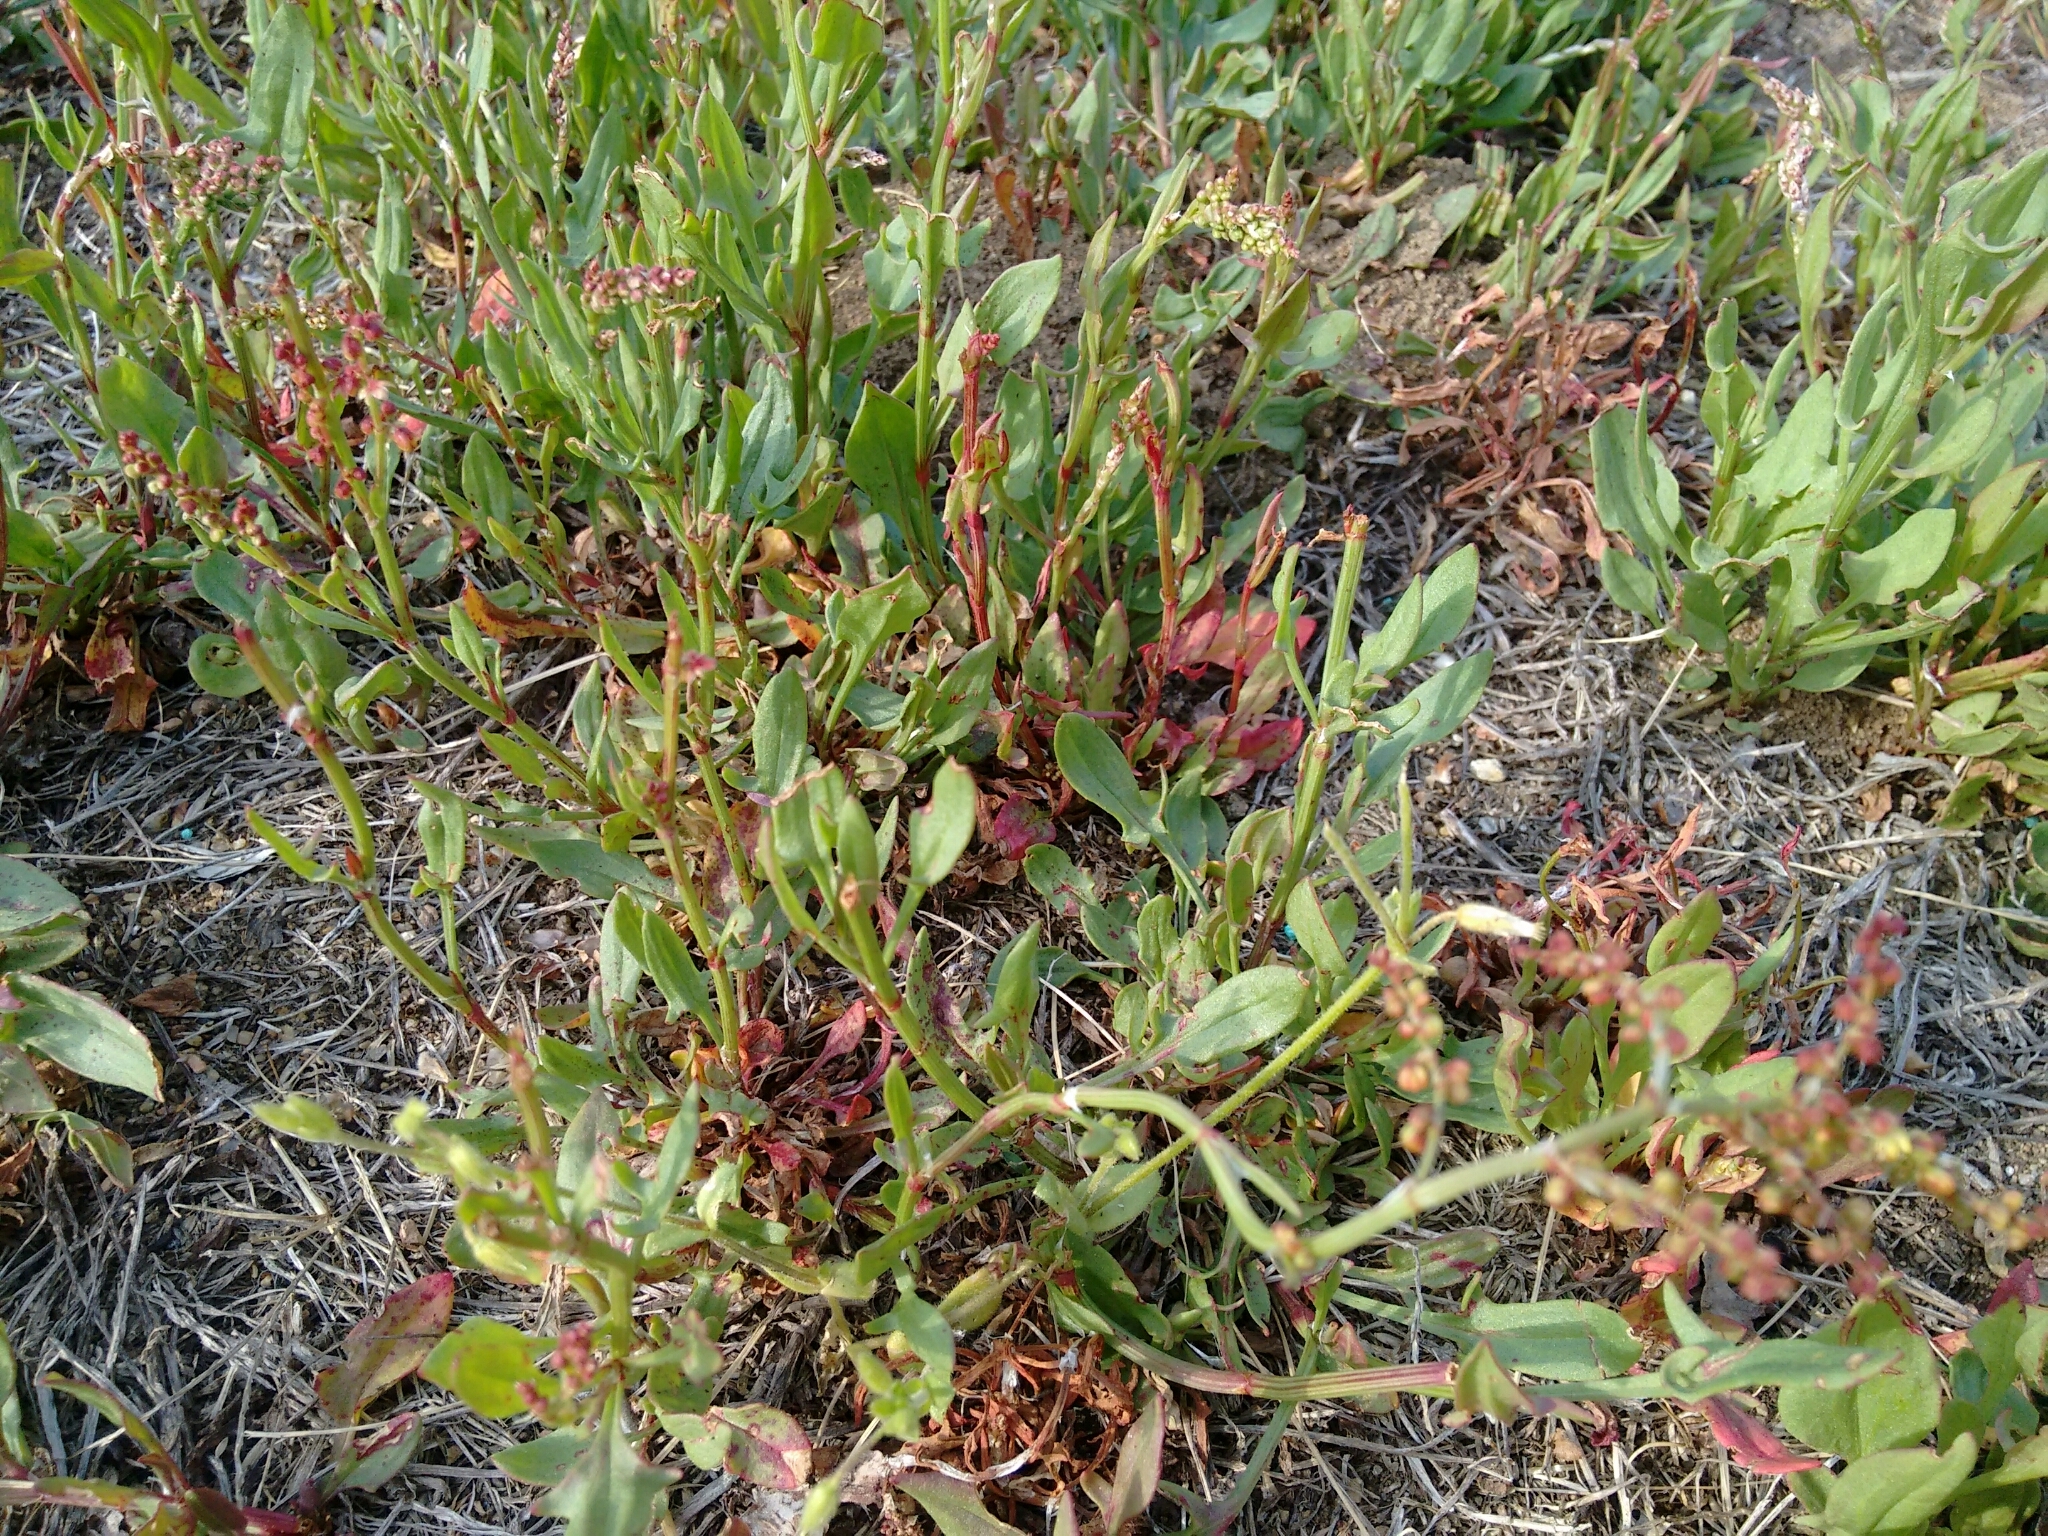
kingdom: Plantae
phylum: Tracheophyta
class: Magnoliopsida
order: Caryophyllales
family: Polygonaceae
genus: Rumex
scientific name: Rumex acetosella
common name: Common sheep sorrel
